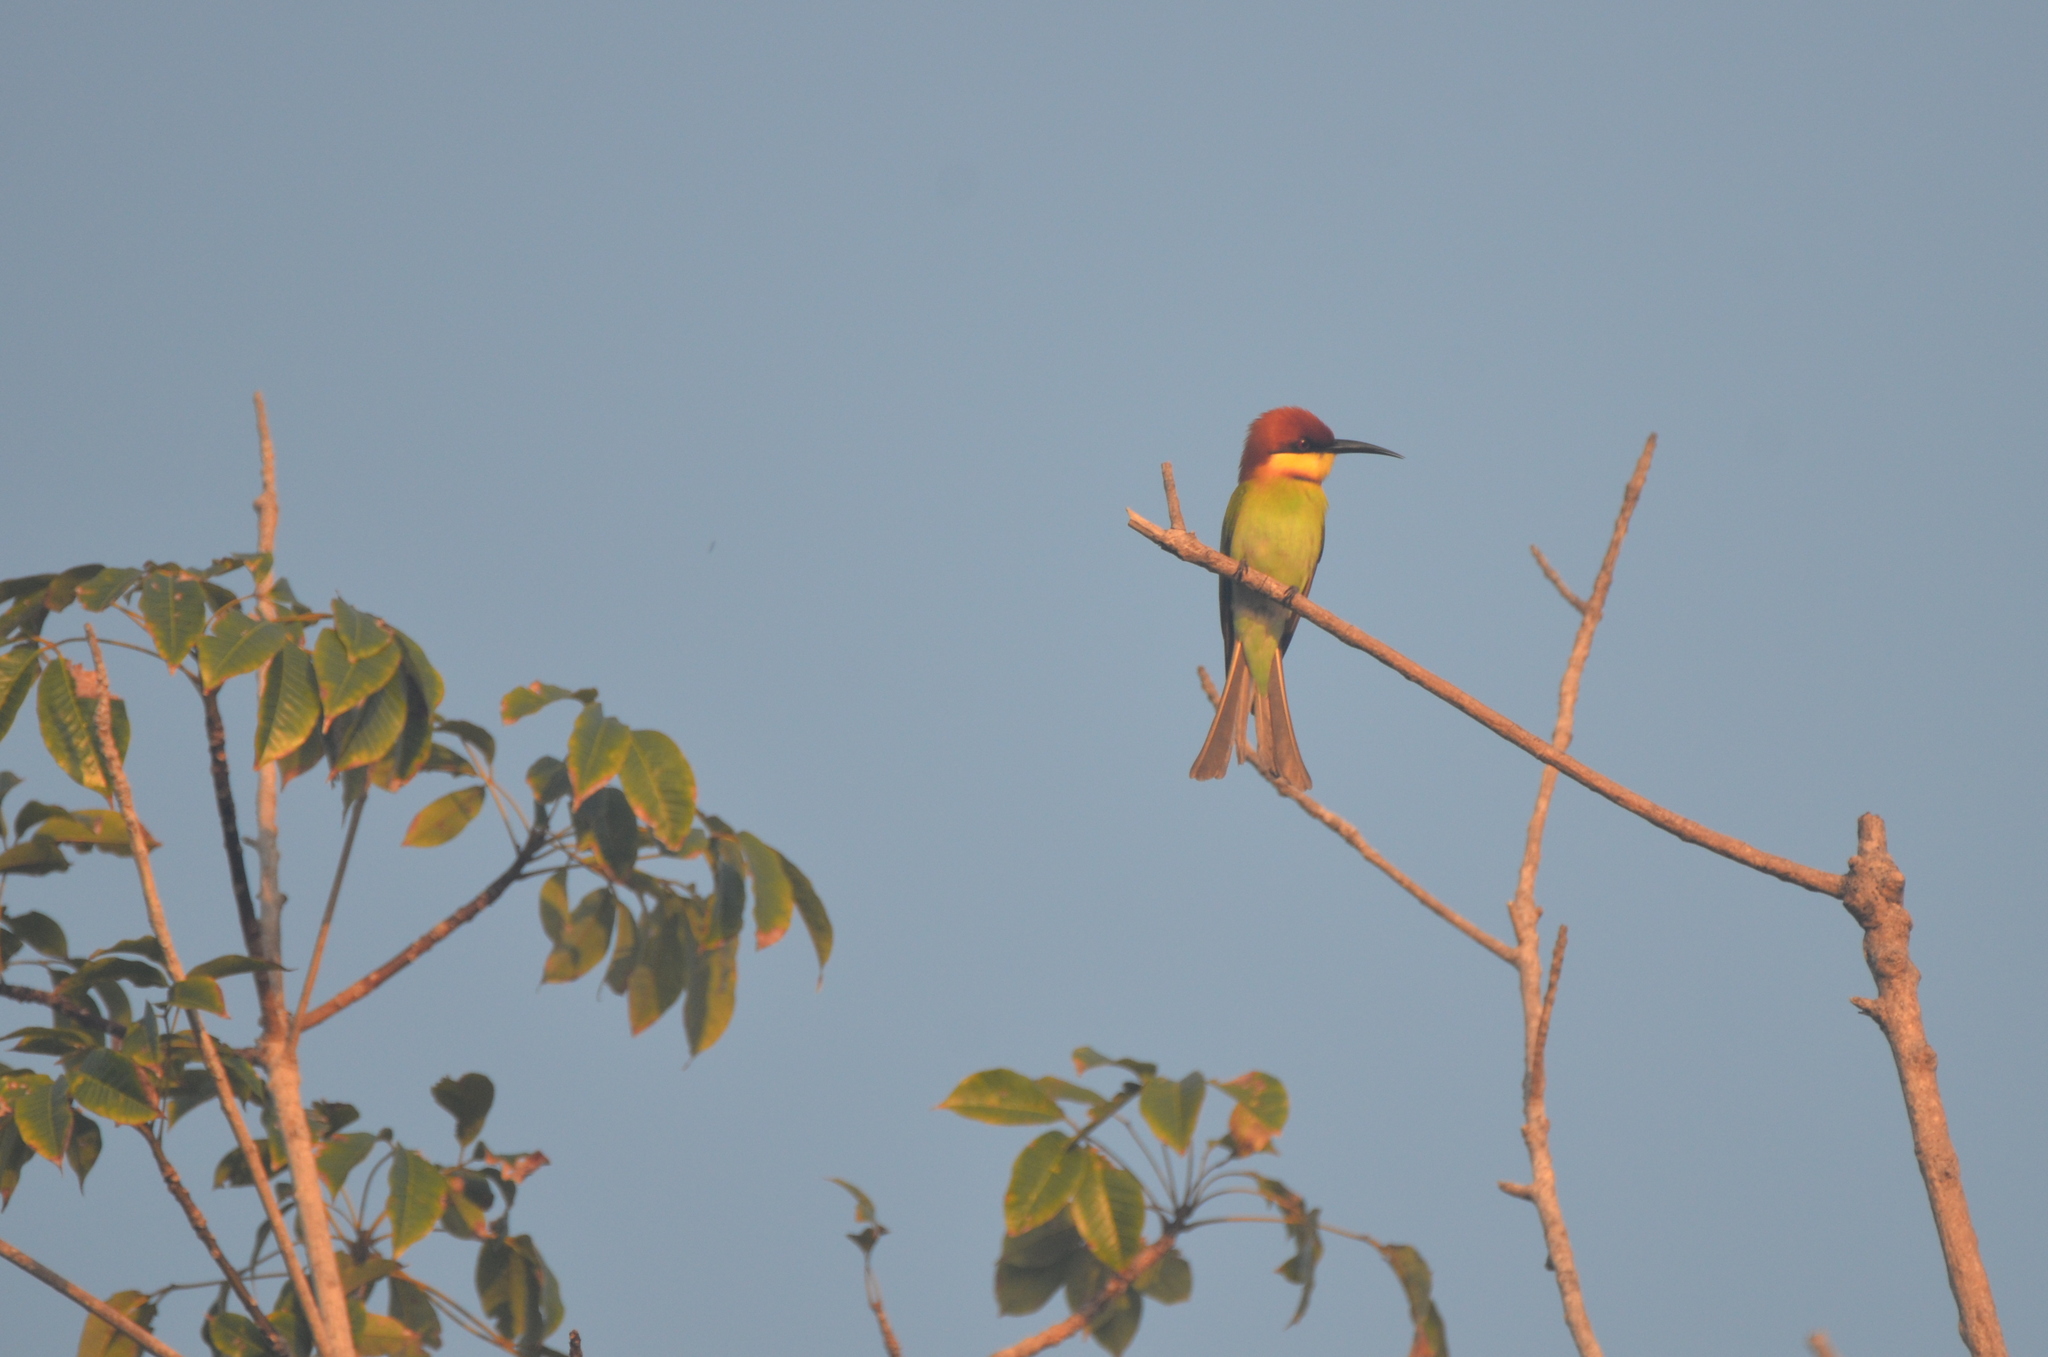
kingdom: Animalia
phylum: Chordata
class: Aves
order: Coraciiformes
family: Meropidae
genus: Merops
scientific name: Merops leschenaulti
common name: Chestnut-headed bee-eater
